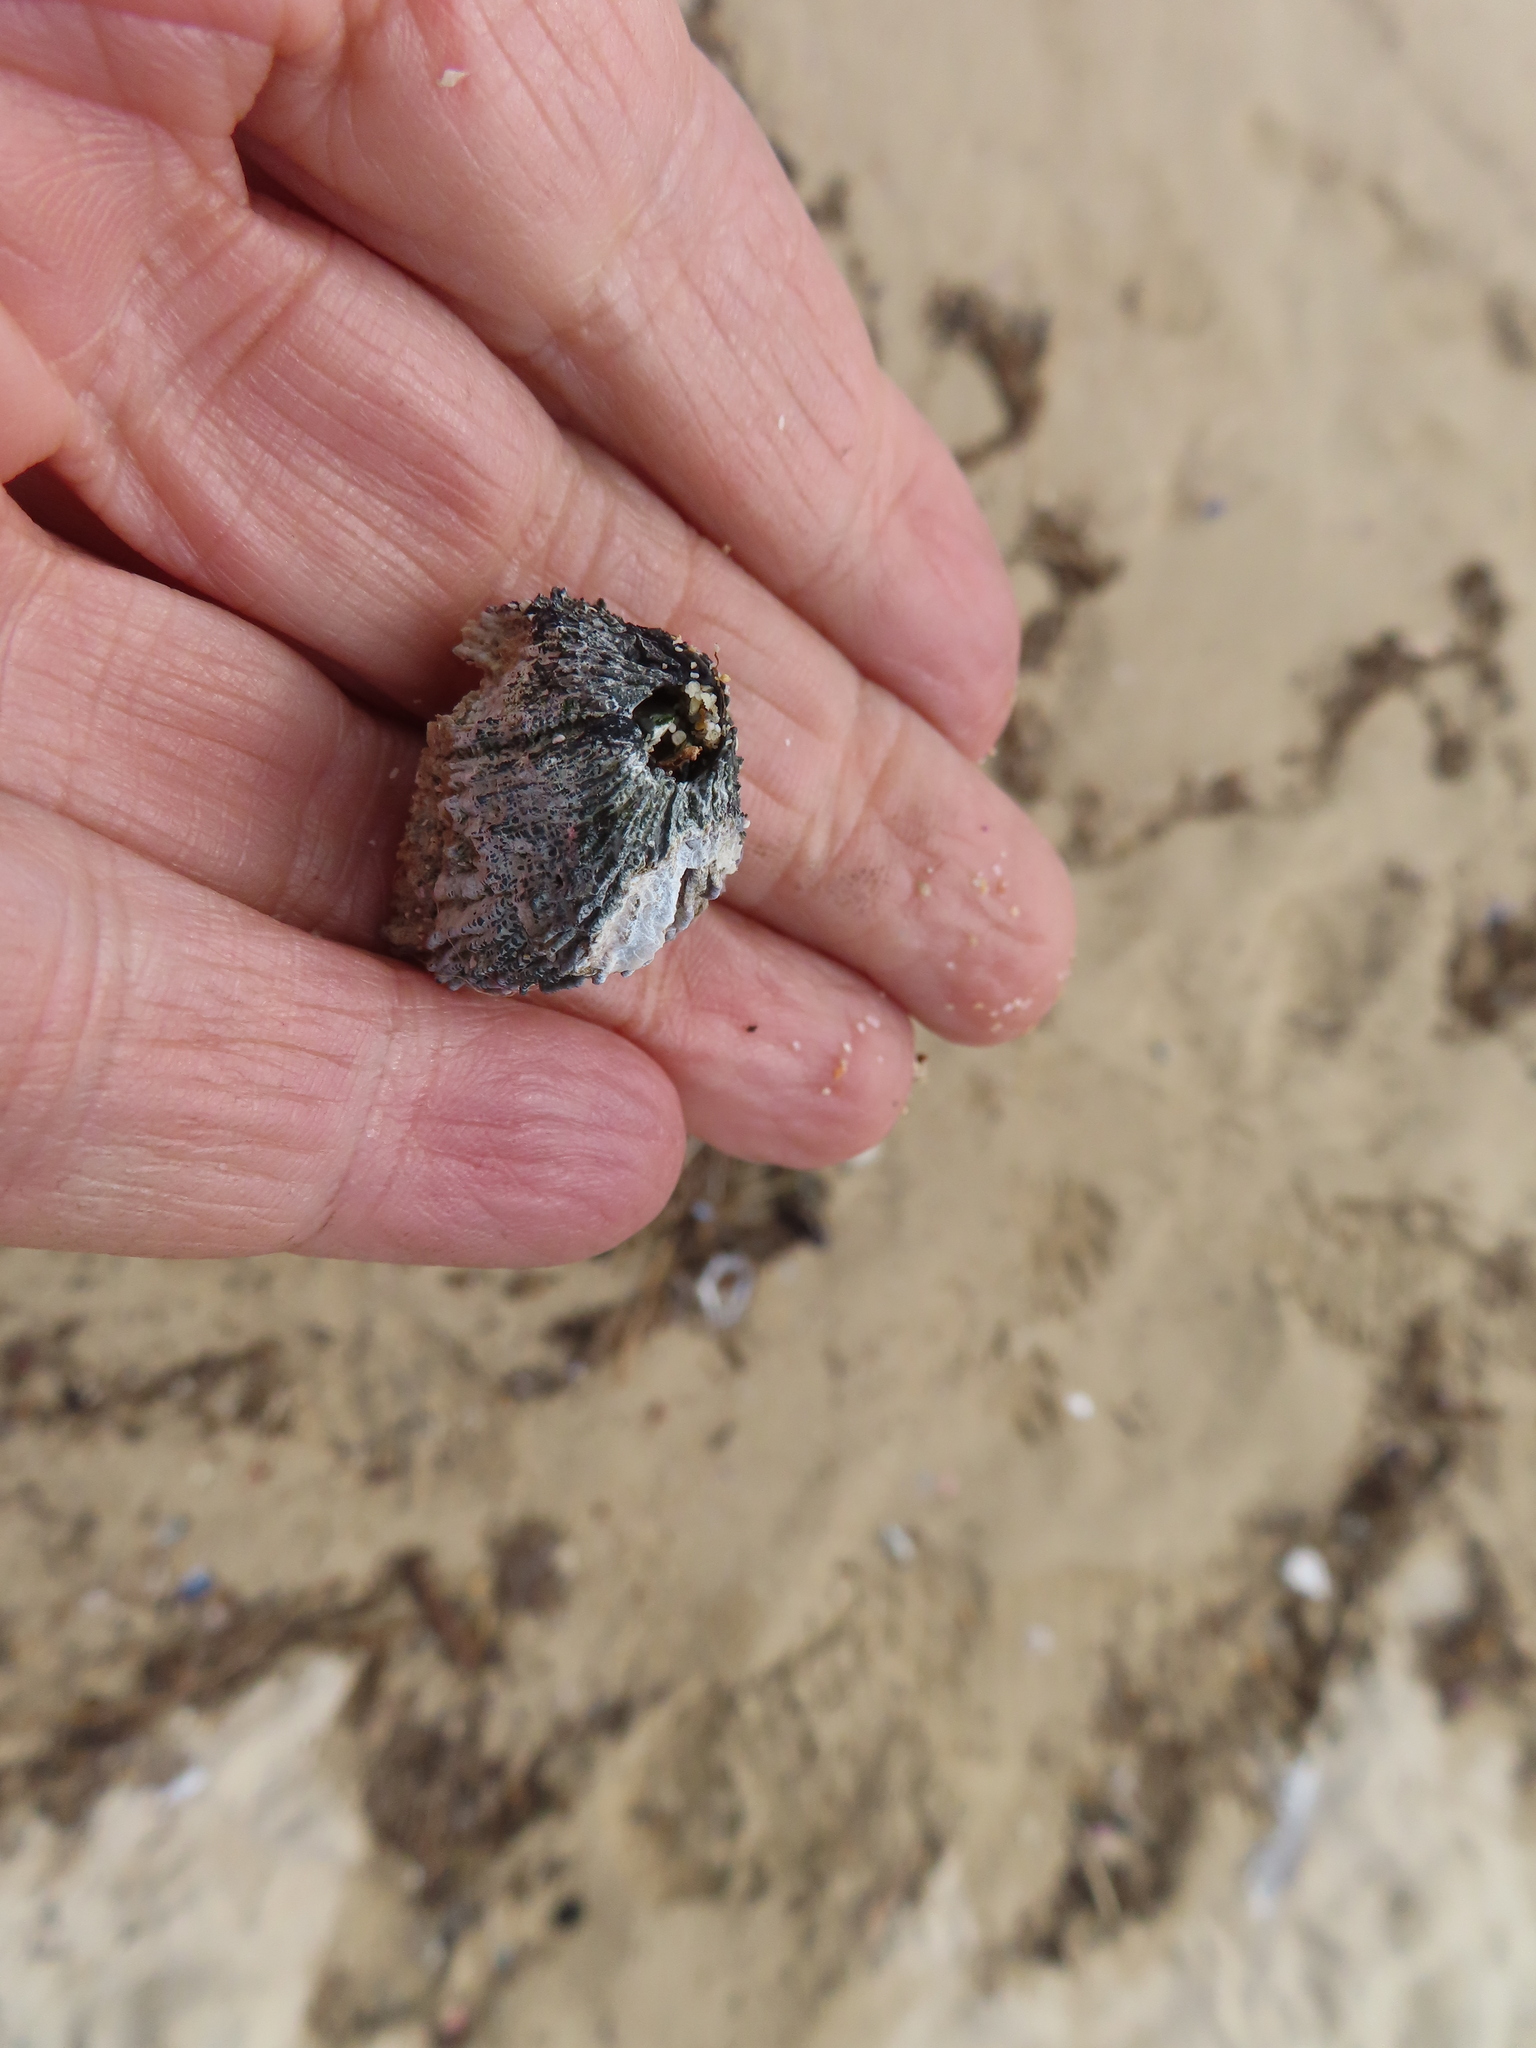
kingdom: Animalia
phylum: Arthropoda
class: Maxillopoda
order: Sessilia
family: Tetraclitidae
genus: Tetraclita
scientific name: Tetraclita serrata
